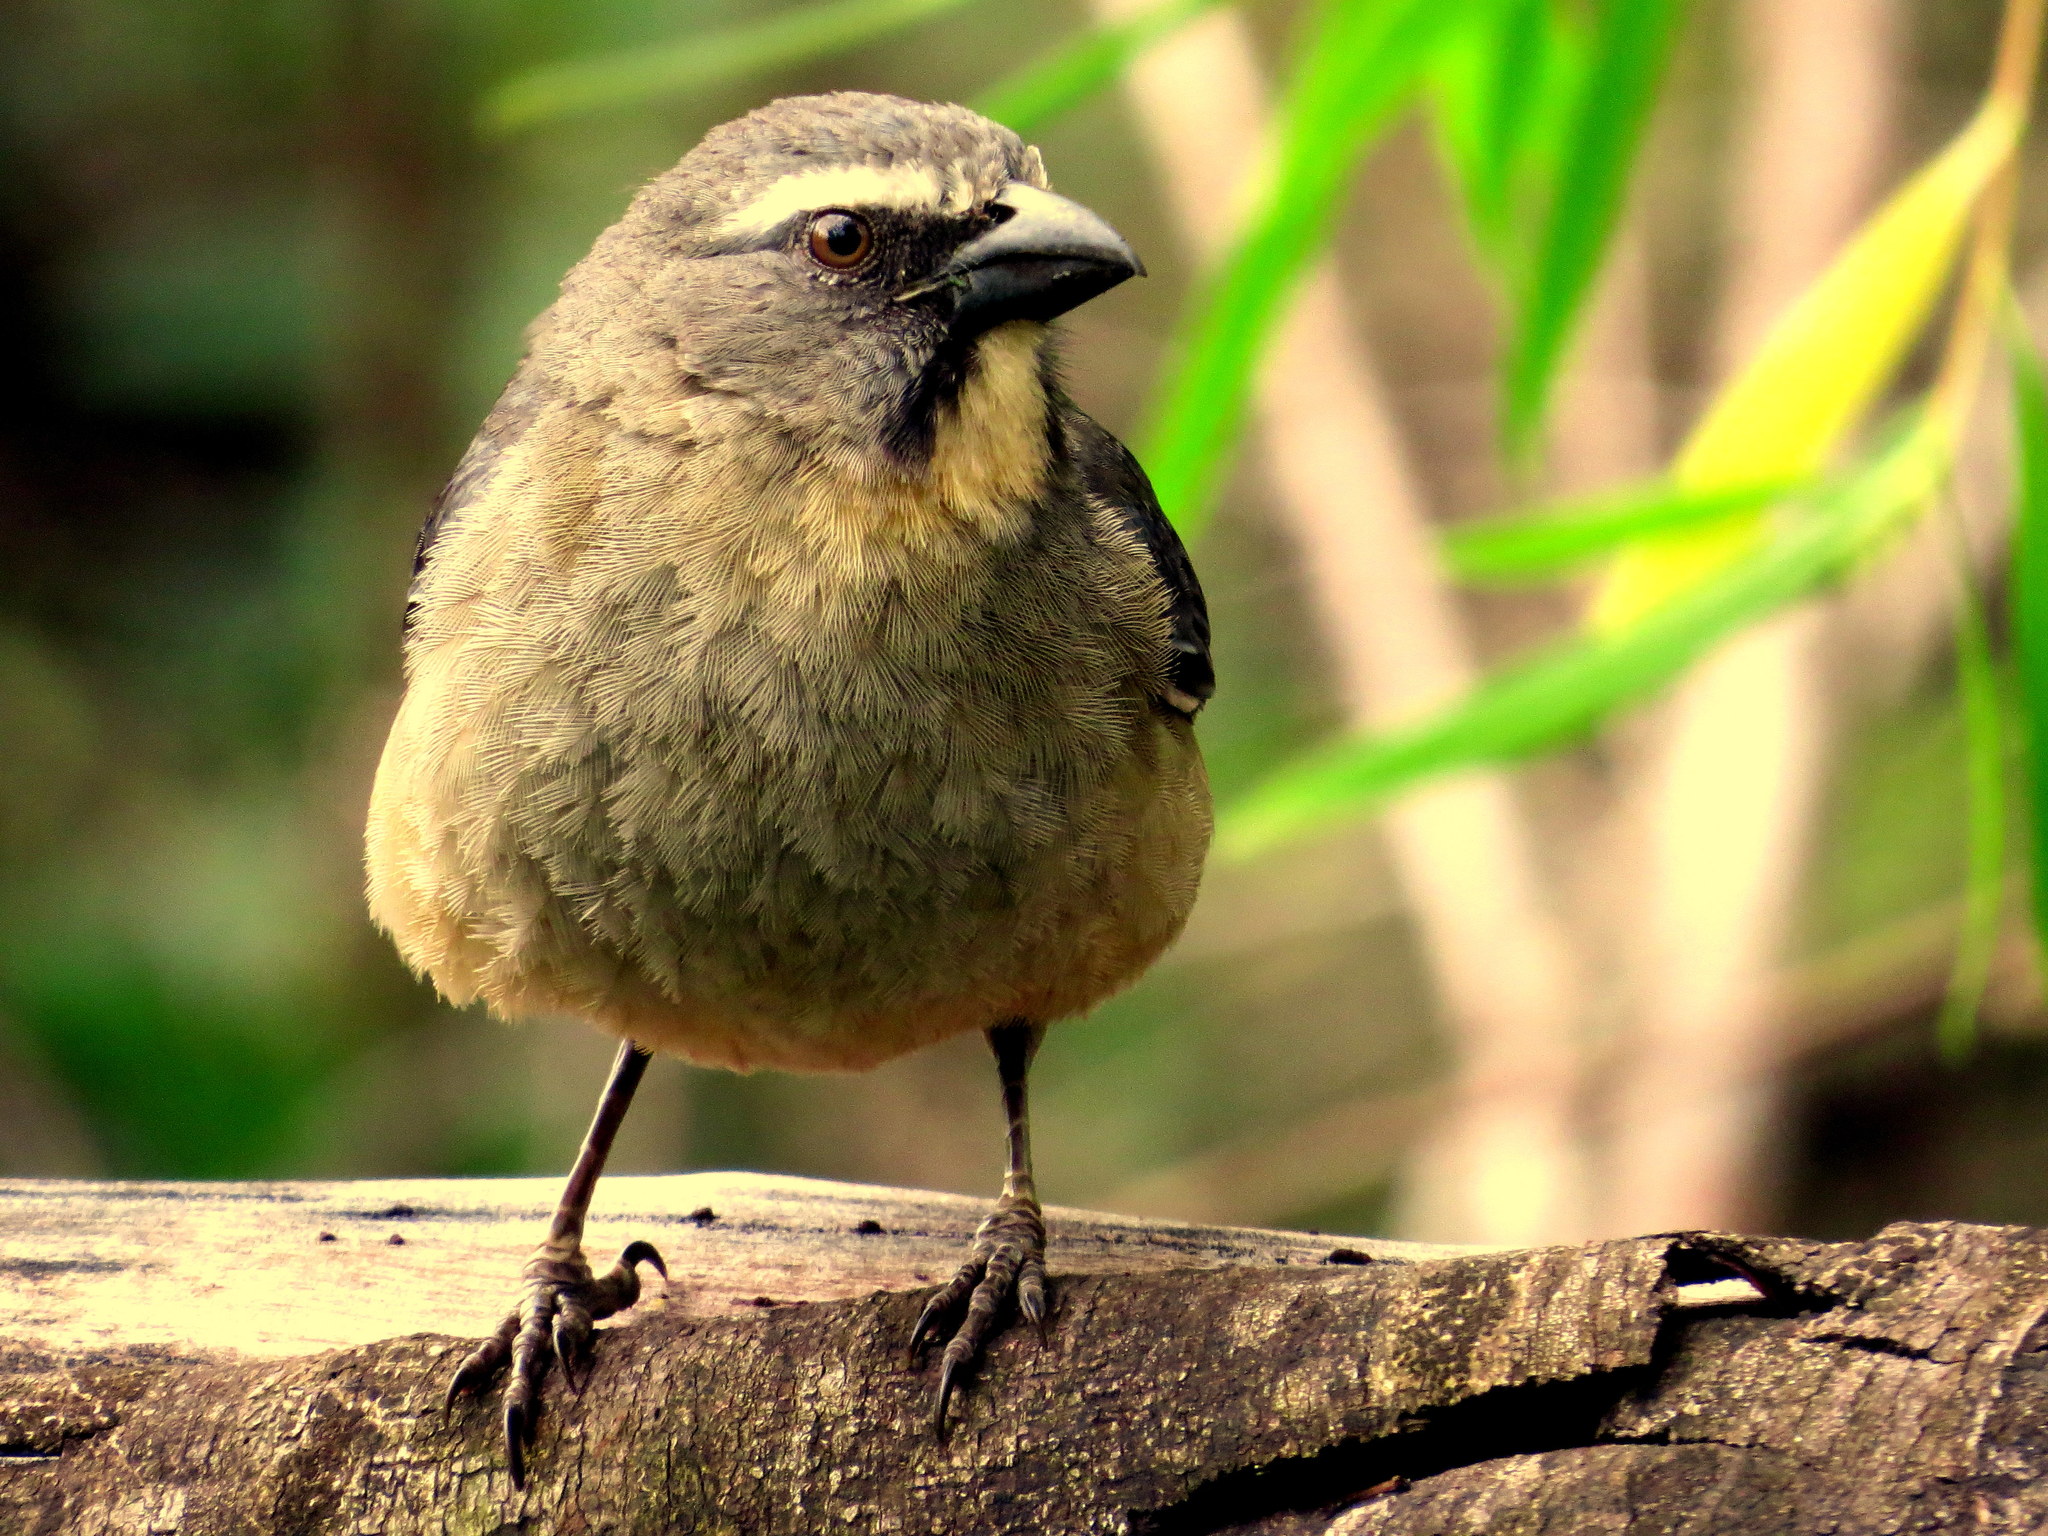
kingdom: Animalia
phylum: Chordata
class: Aves
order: Passeriformes
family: Thraupidae
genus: Saltator
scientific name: Saltator coerulescens
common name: Grayish saltator
